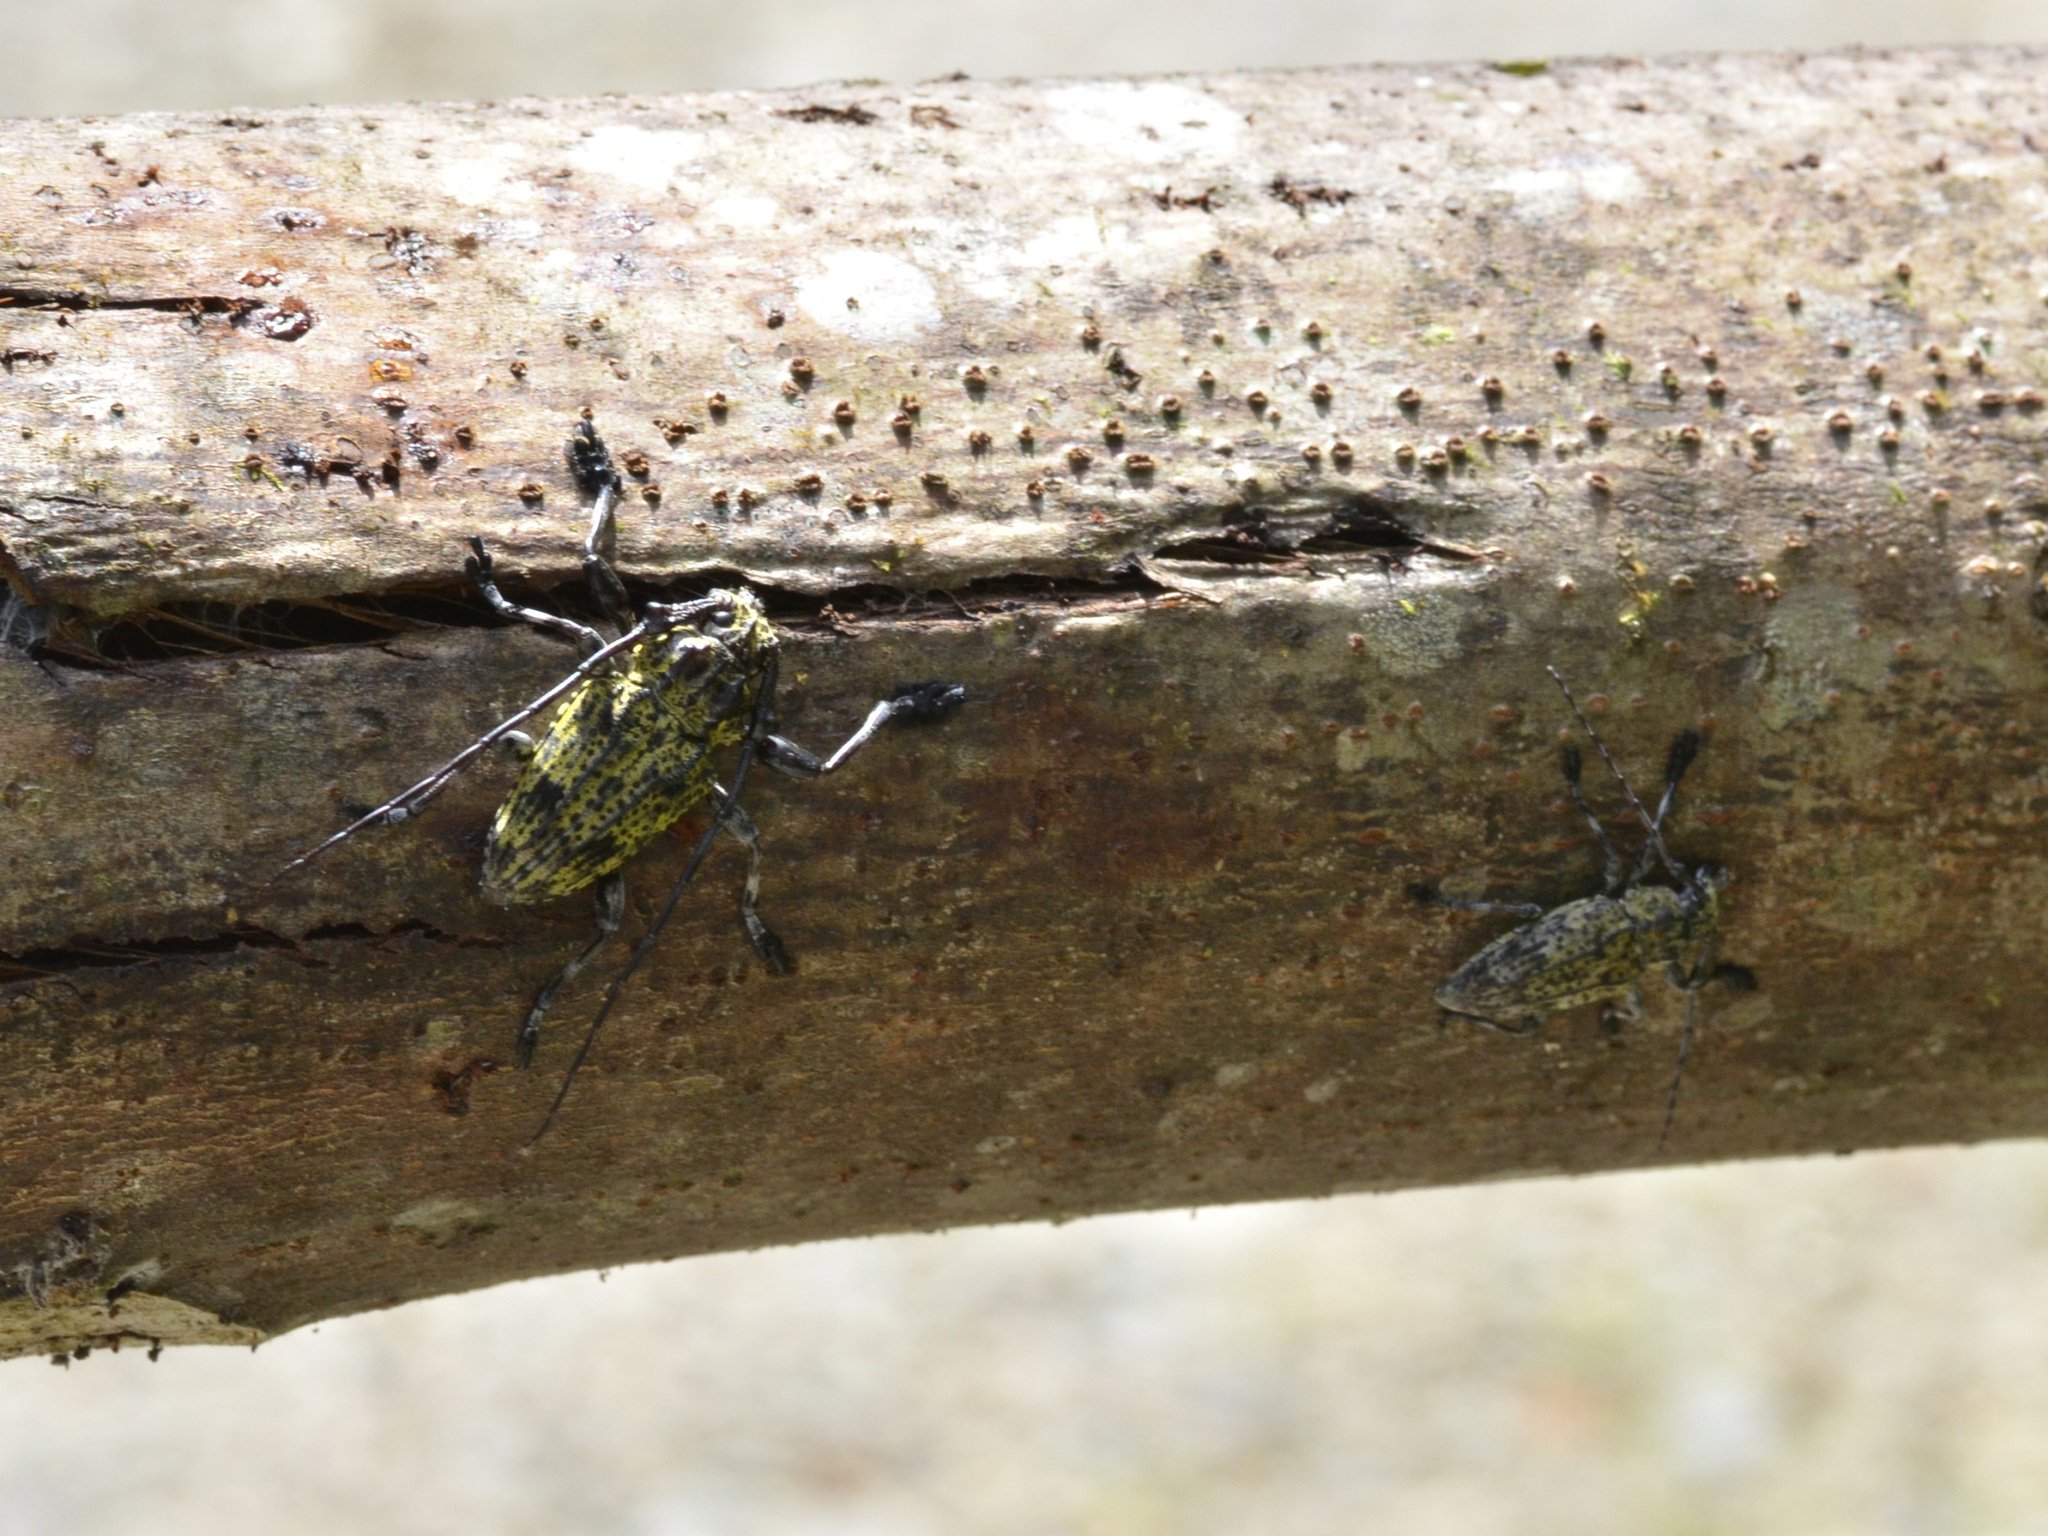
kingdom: Animalia
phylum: Arthropoda
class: Insecta
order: Coleoptera
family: Cerambycidae
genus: Steirastoma
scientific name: Steirastoma breve
